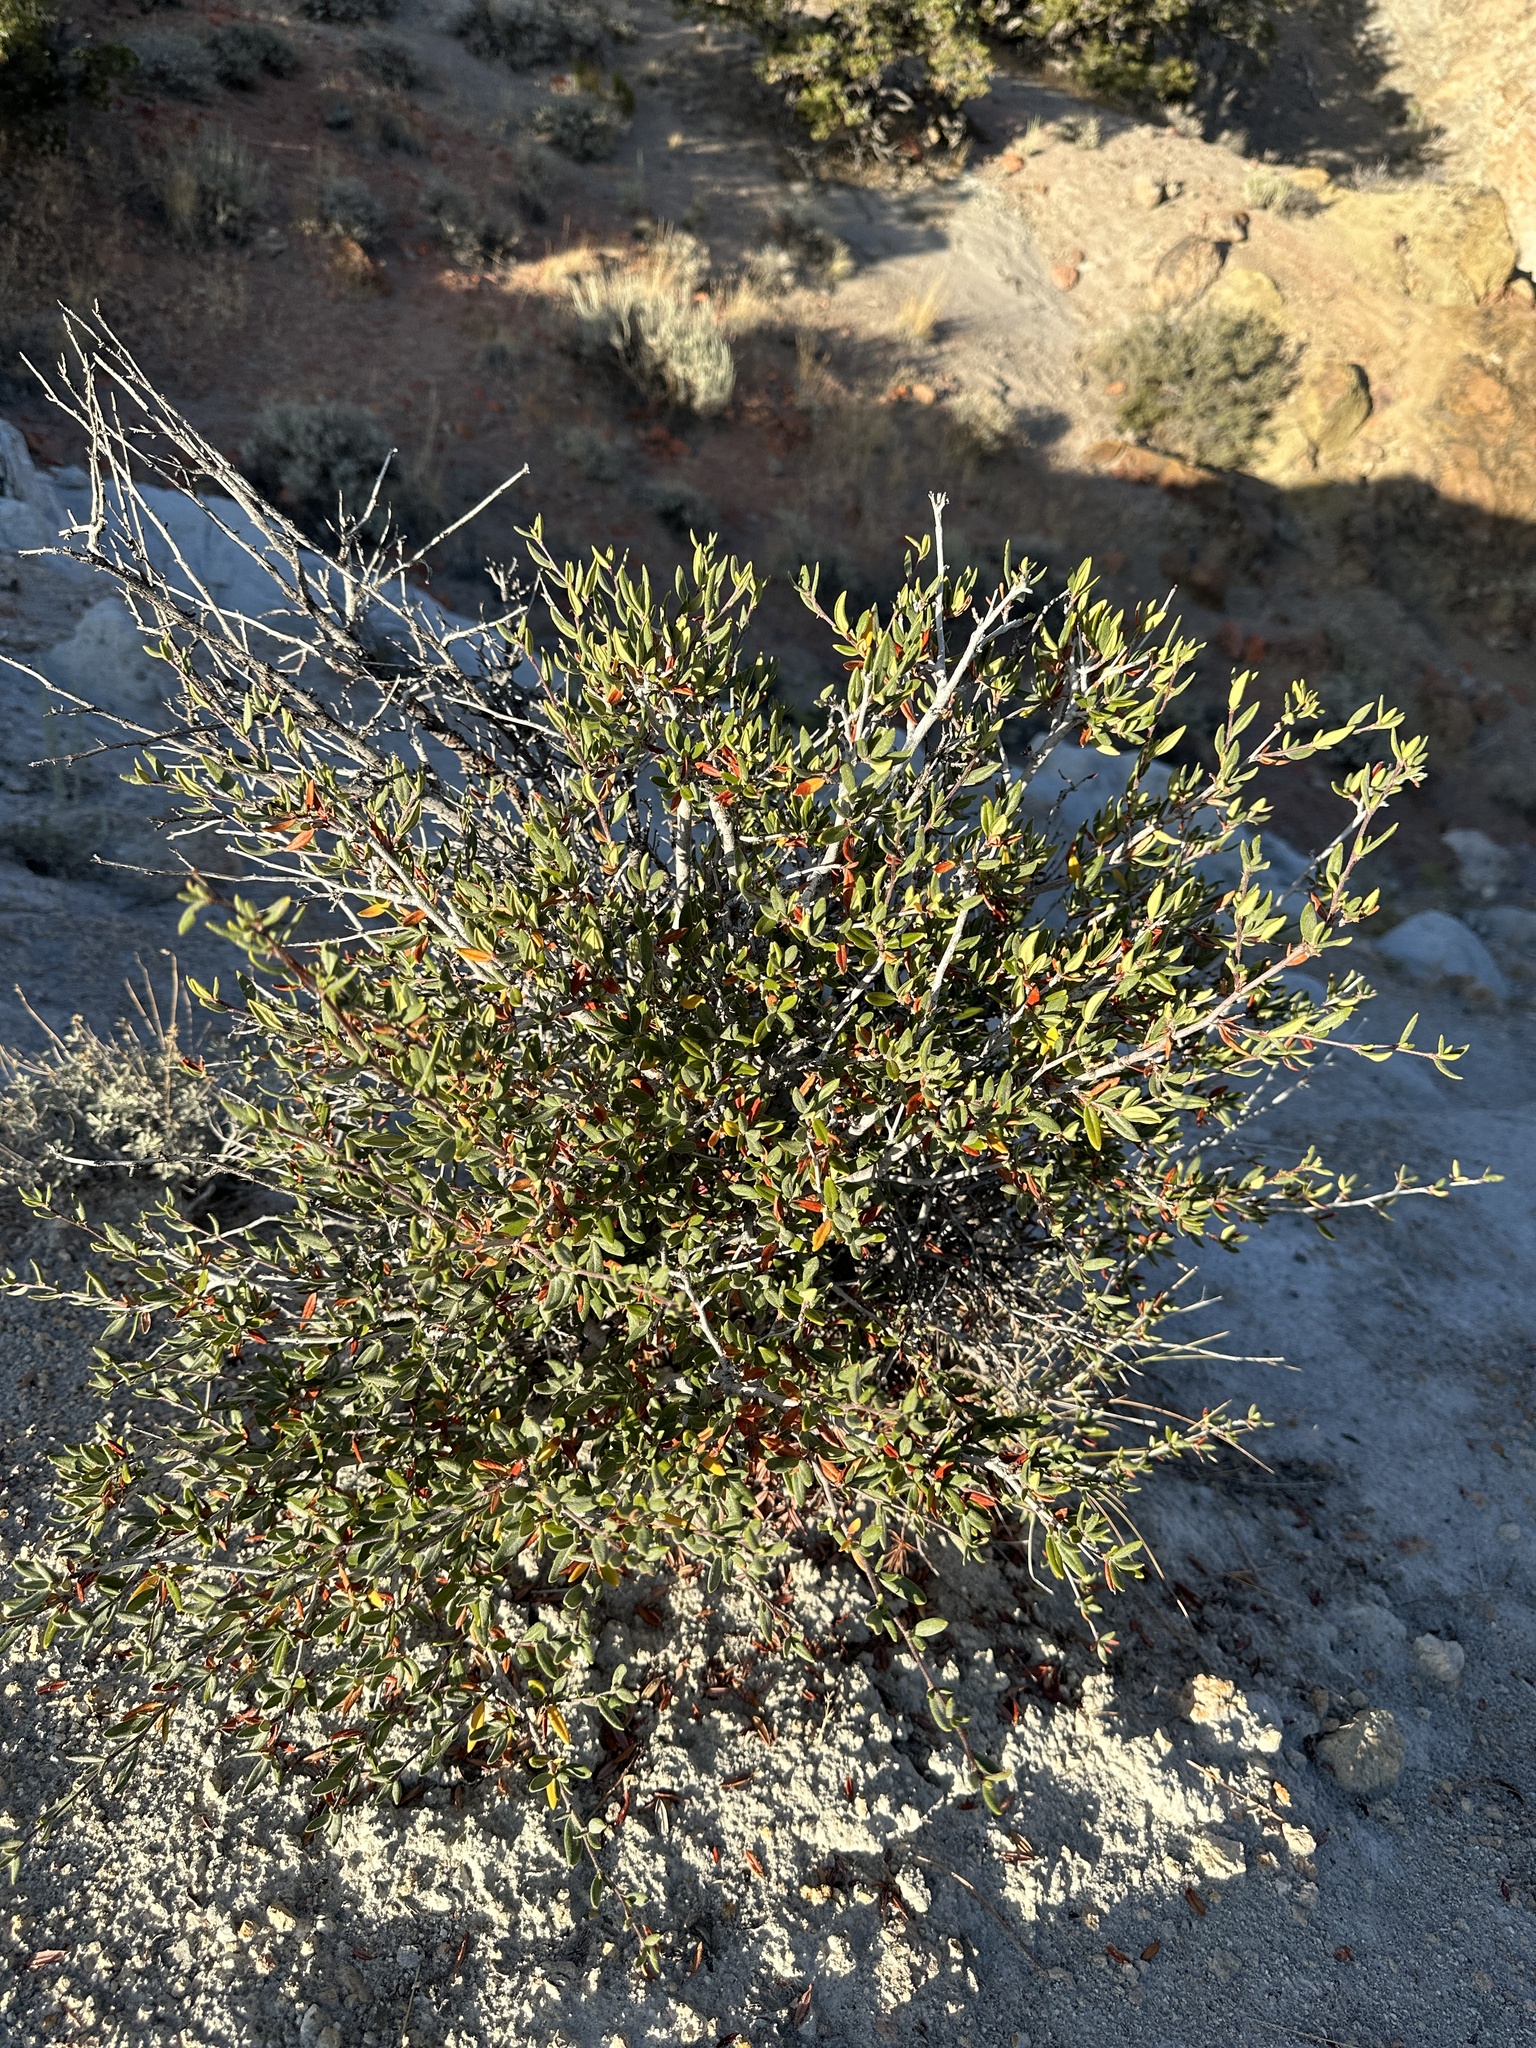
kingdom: Plantae
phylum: Tracheophyta
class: Magnoliopsida
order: Rosales
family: Rosaceae
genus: Cercocarpus
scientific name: Cercocarpus ledifolius
